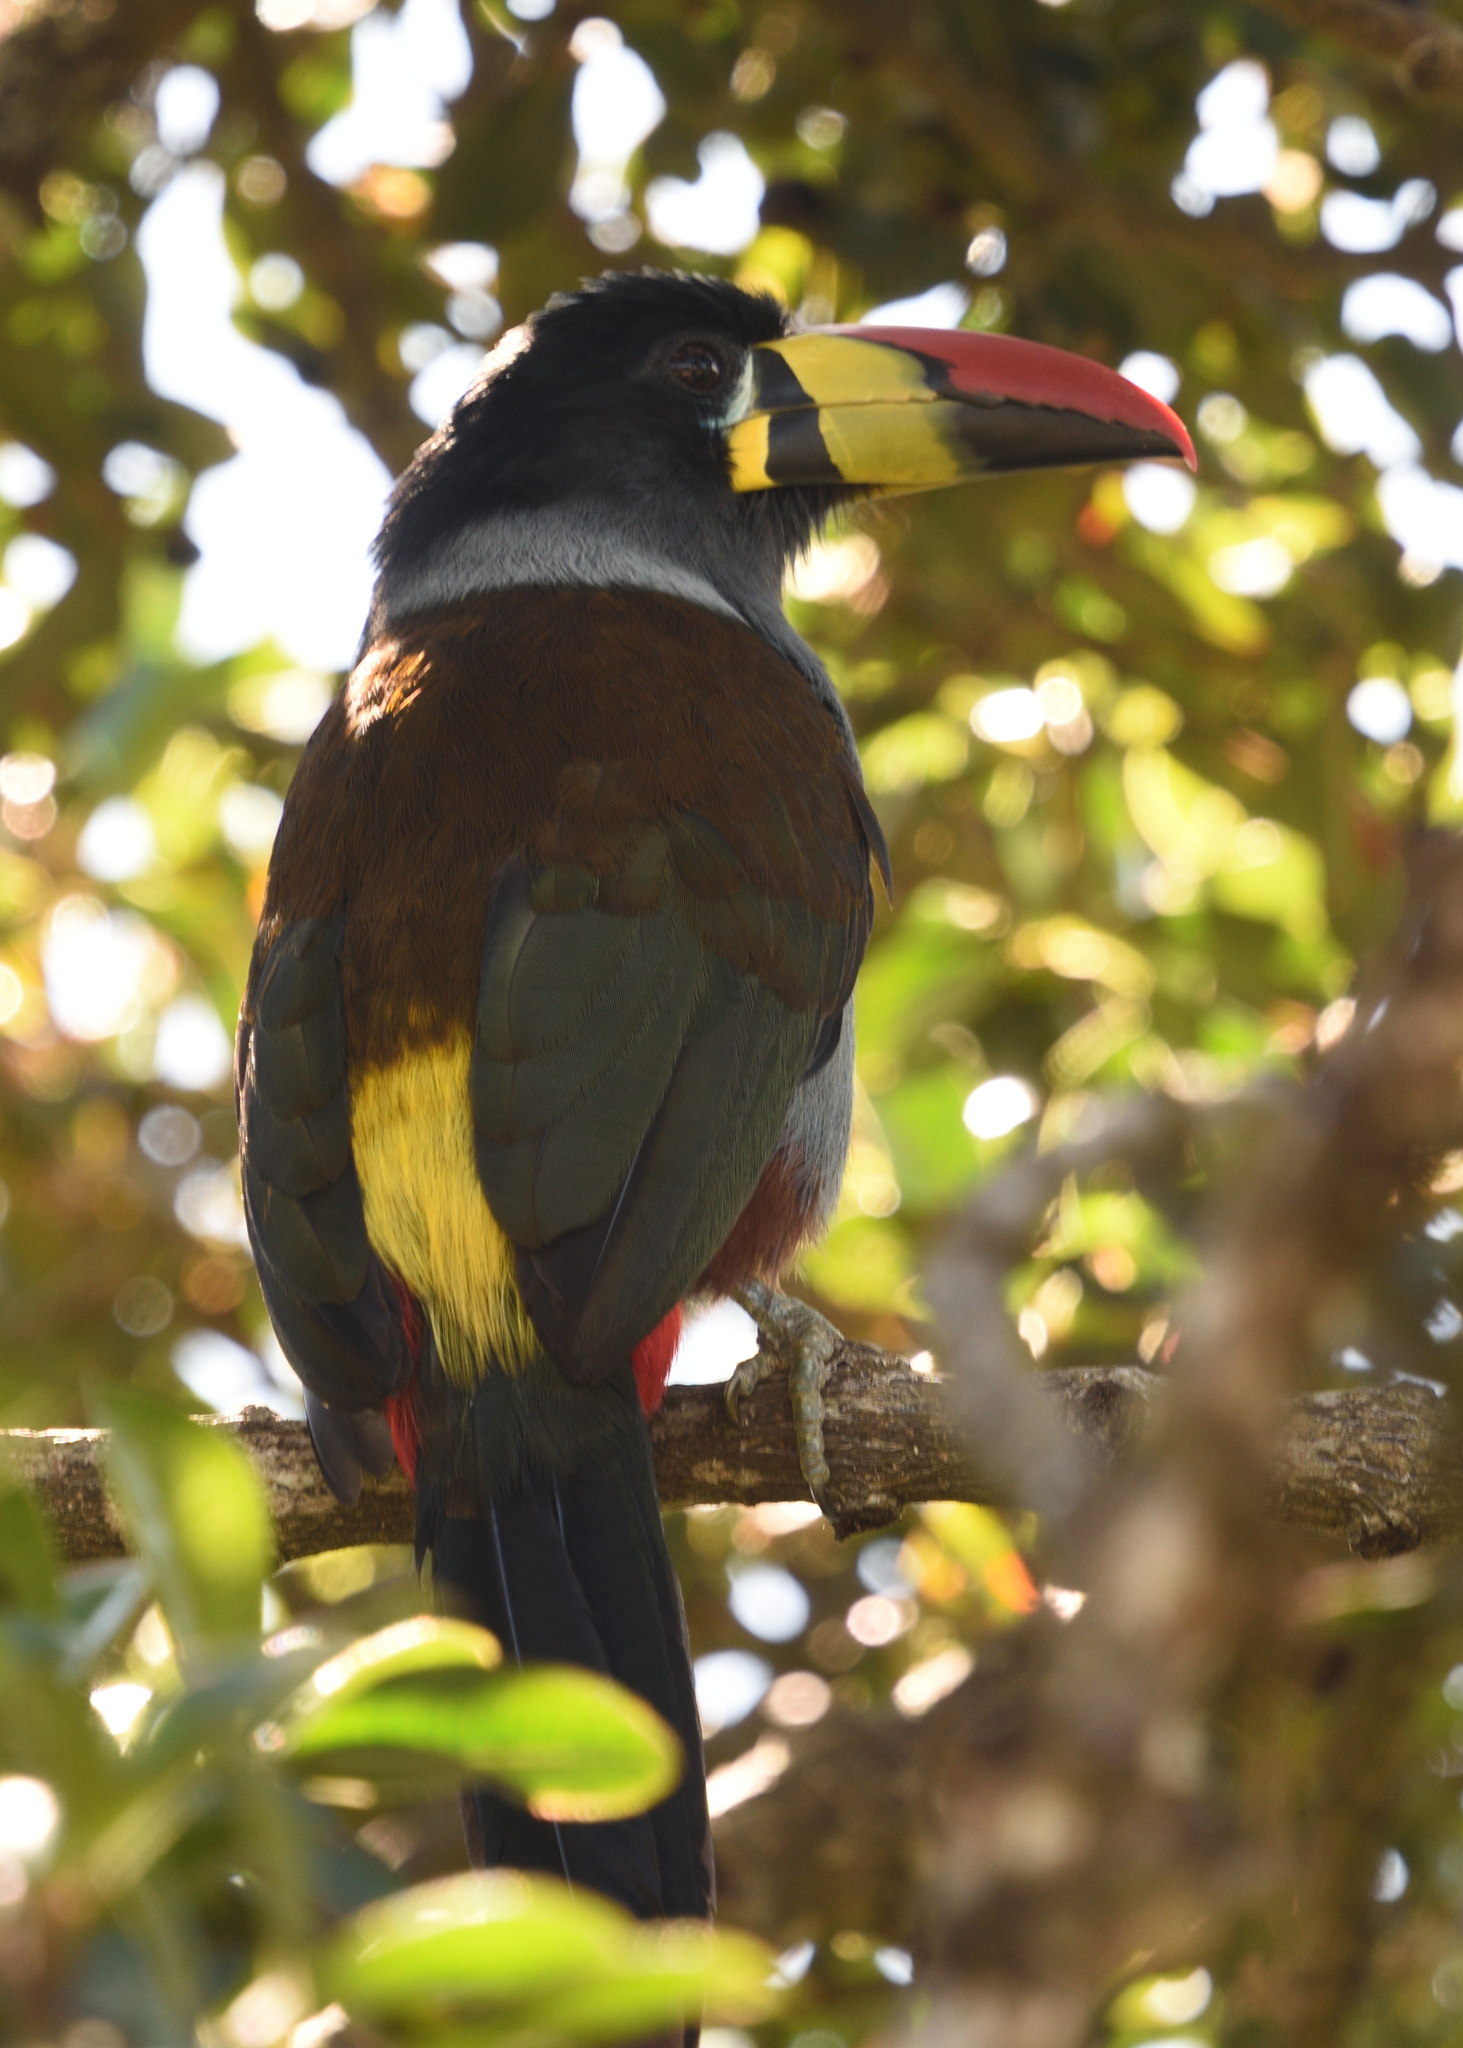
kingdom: Animalia
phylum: Chordata
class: Aves
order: Piciformes
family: Ramphastidae
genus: Andigena
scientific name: Andigena hypoglauca
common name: Grey-breasted mountain toucan
